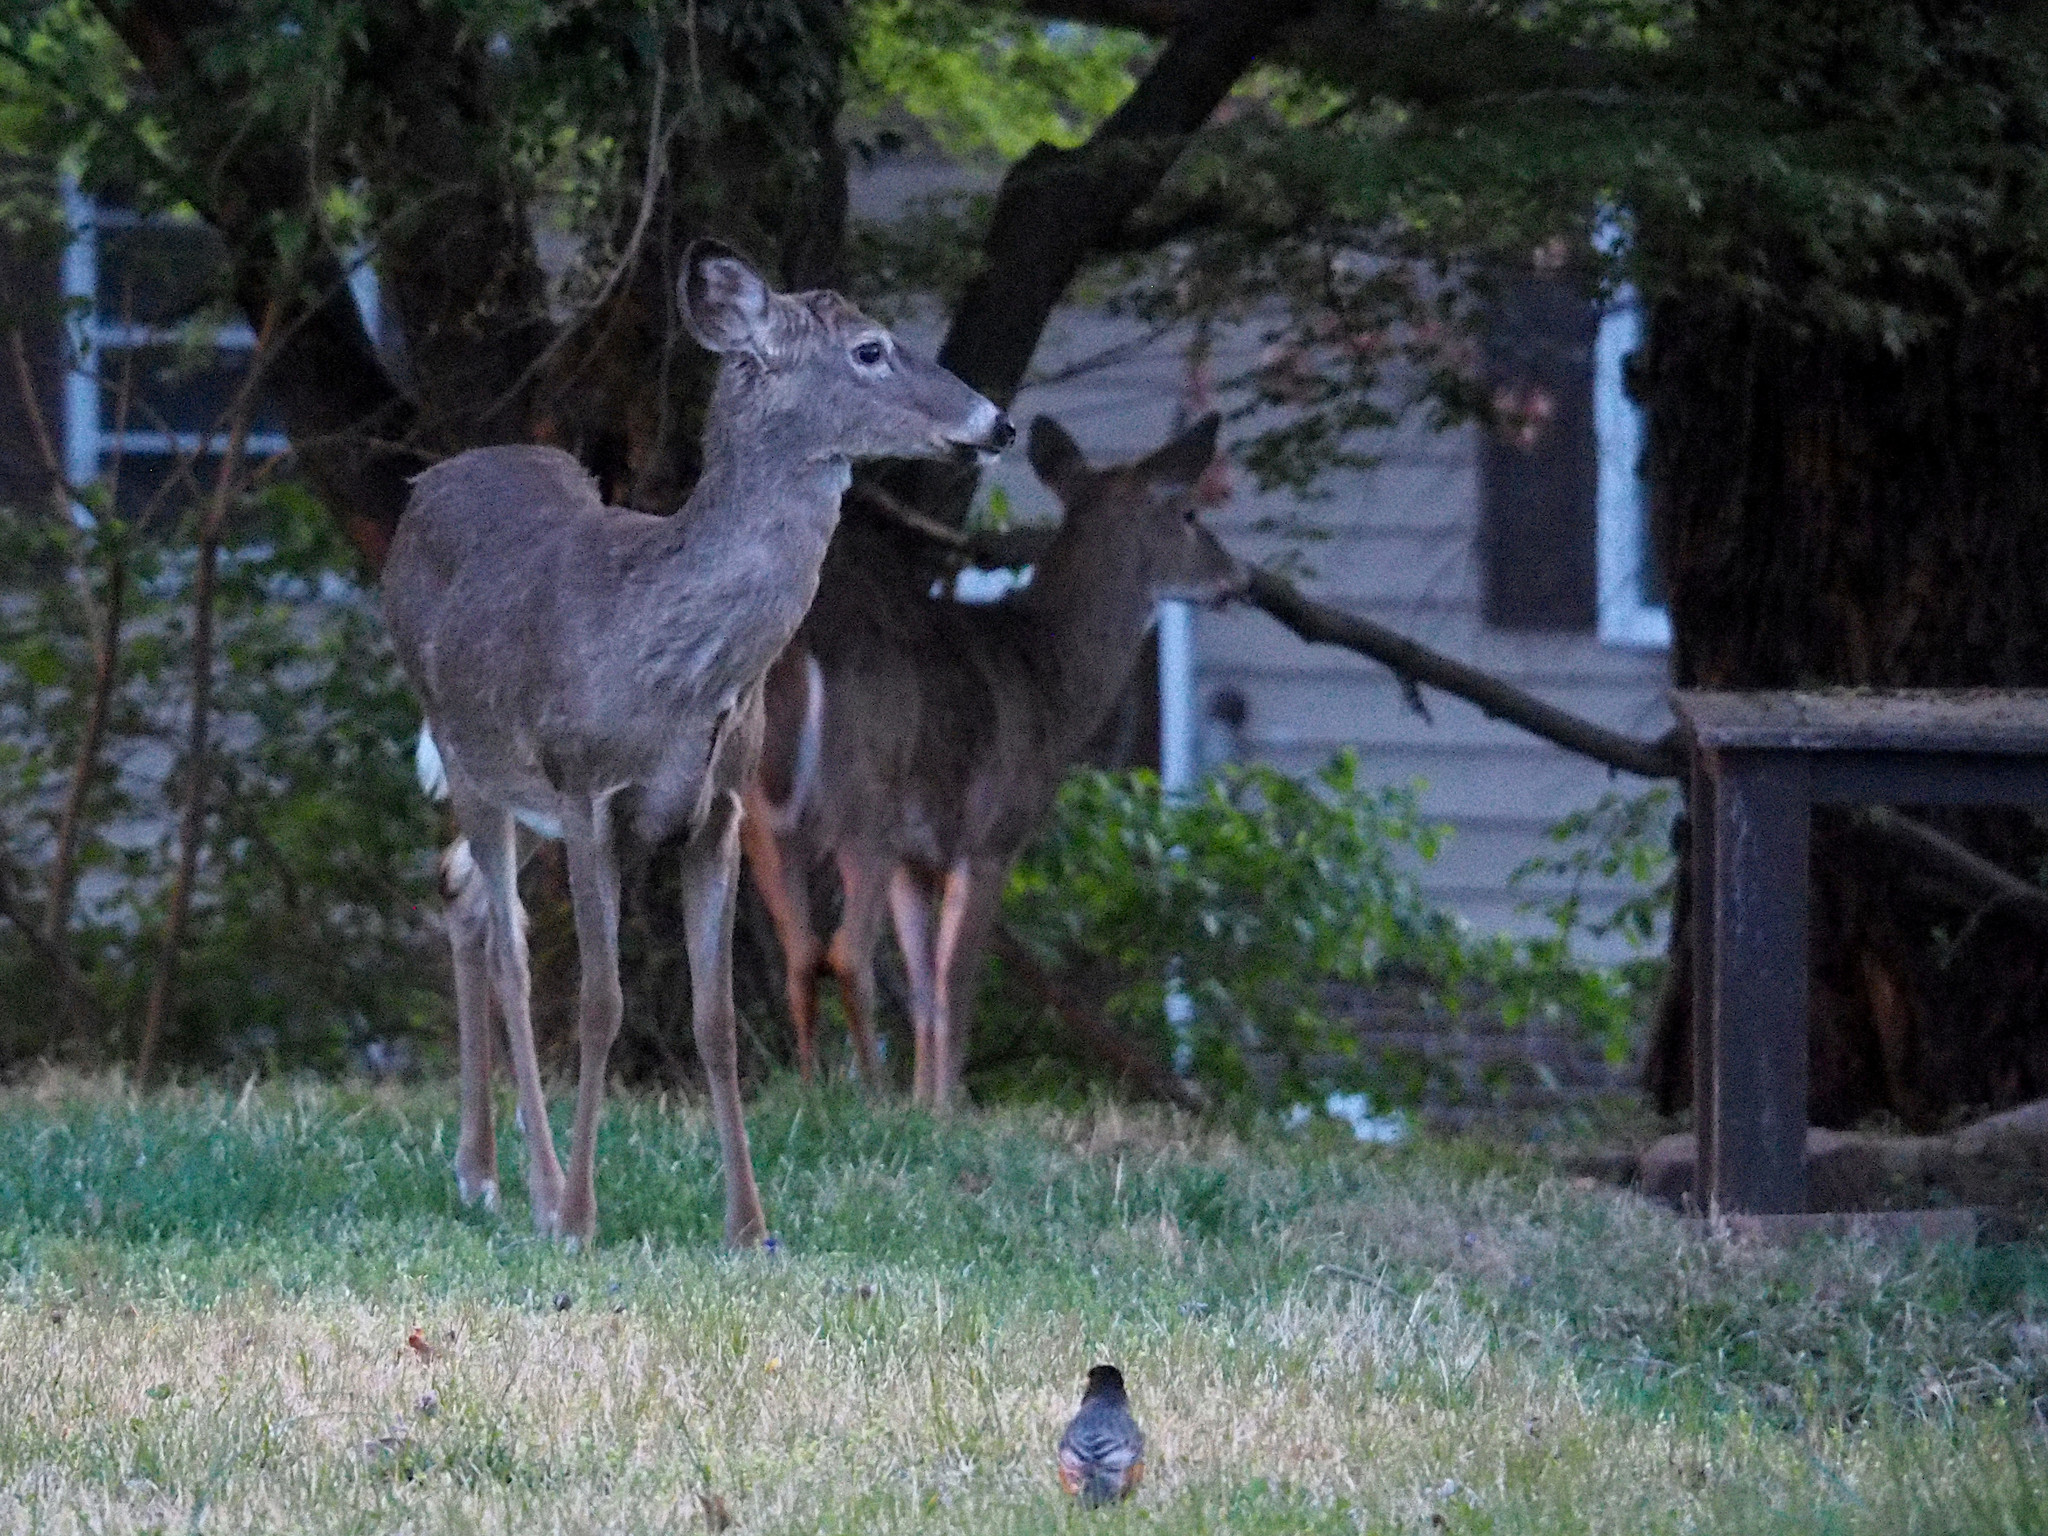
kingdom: Animalia
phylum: Chordata
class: Mammalia
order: Artiodactyla
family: Cervidae
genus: Odocoileus
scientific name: Odocoileus virginianus
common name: White-tailed deer
